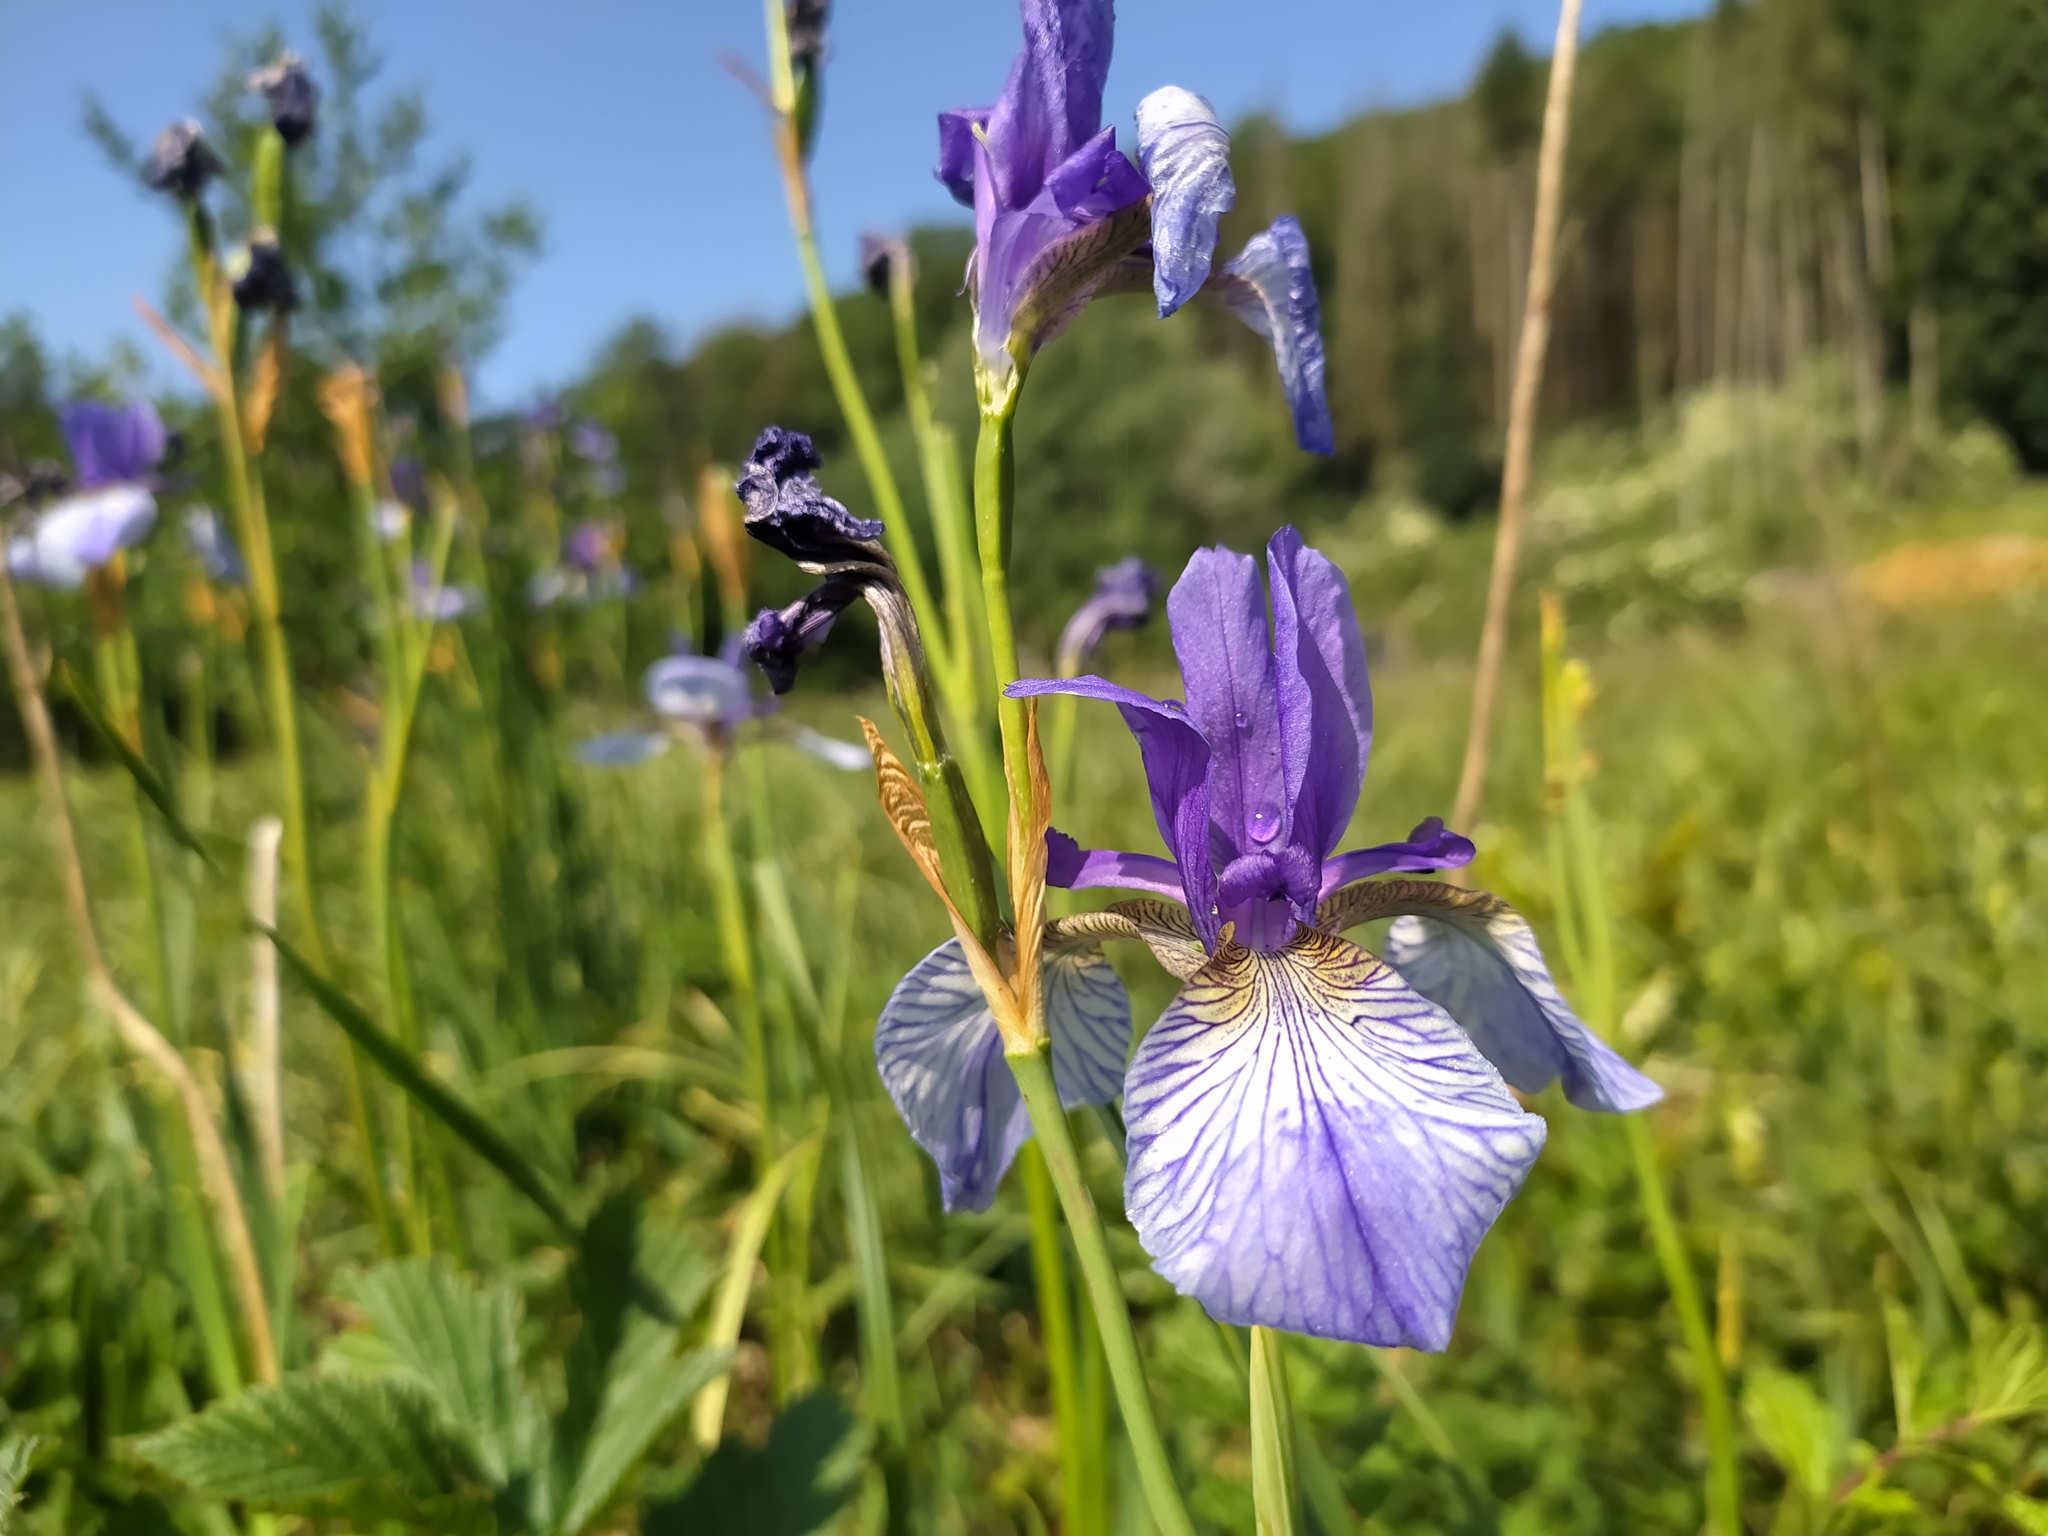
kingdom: Plantae
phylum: Tracheophyta
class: Liliopsida
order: Asparagales
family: Iridaceae
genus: Iris
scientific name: Iris sibirica
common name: Siberian iris
